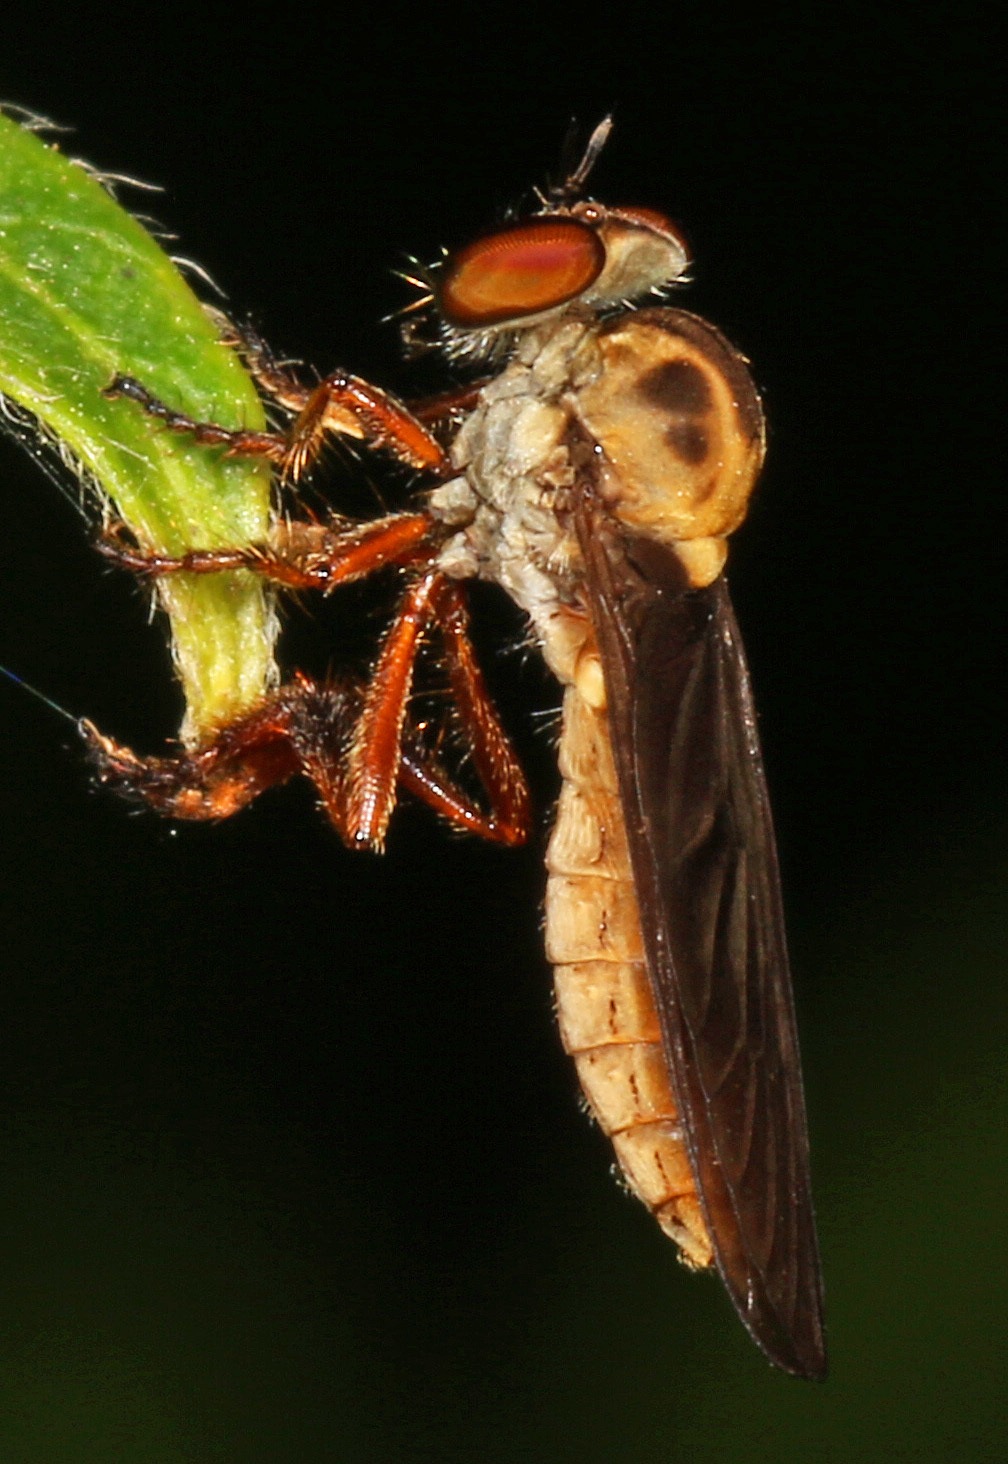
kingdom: Animalia
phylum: Arthropoda
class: Insecta
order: Diptera
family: Asilidae
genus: Holcocephala
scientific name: Holcocephala abdominalis
